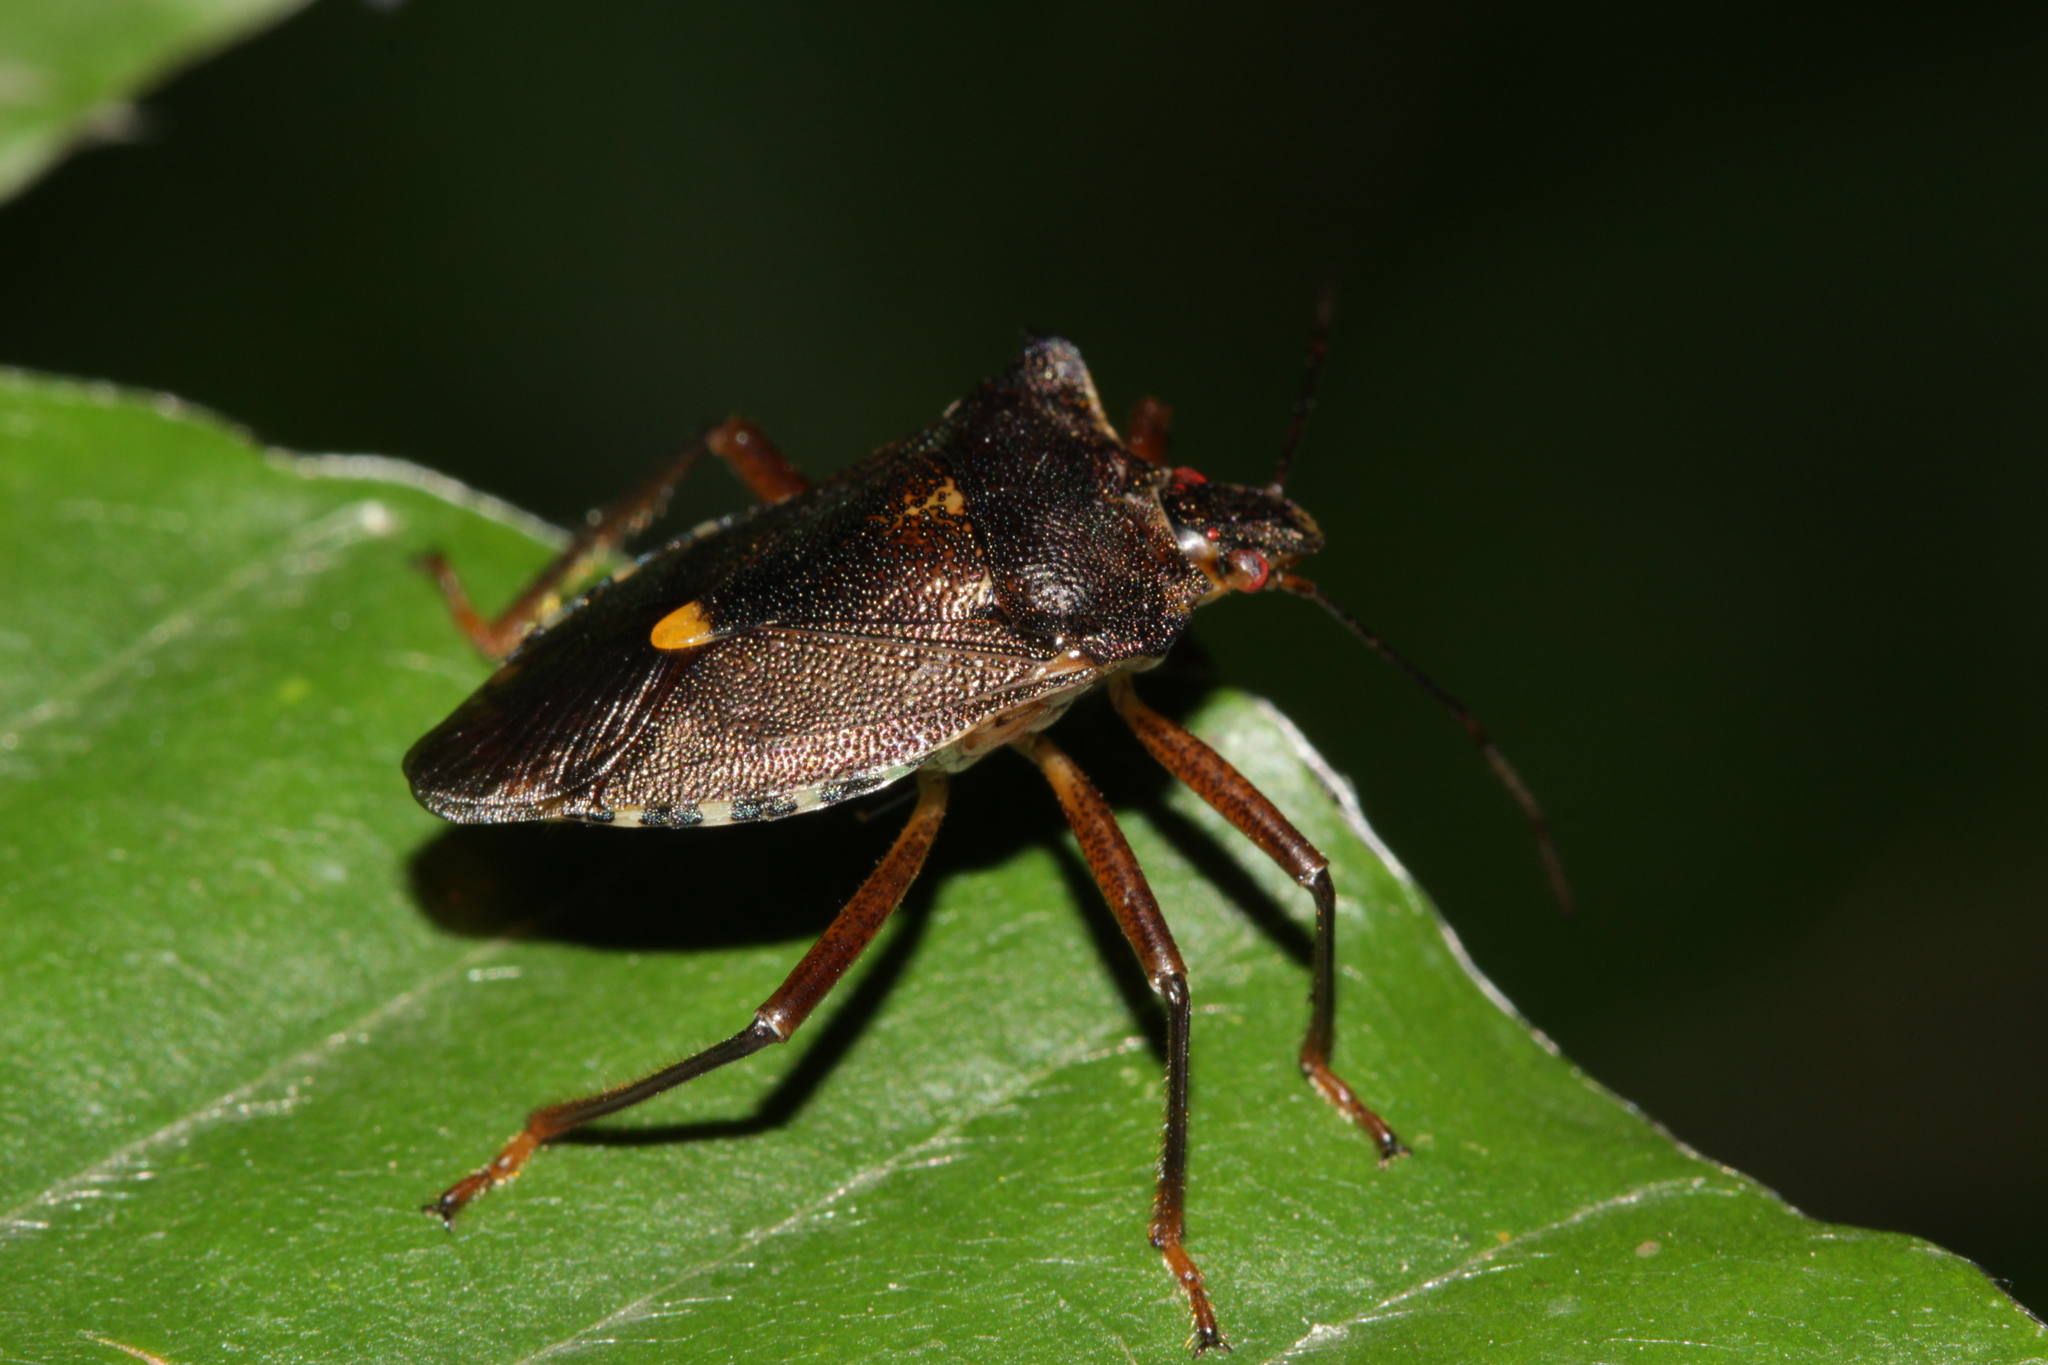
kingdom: Animalia
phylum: Arthropoda
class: Insecta
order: Hemiptera
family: Pentatomidae
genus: Pentatoma
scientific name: Pentatoma rufipes
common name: Forest bug
